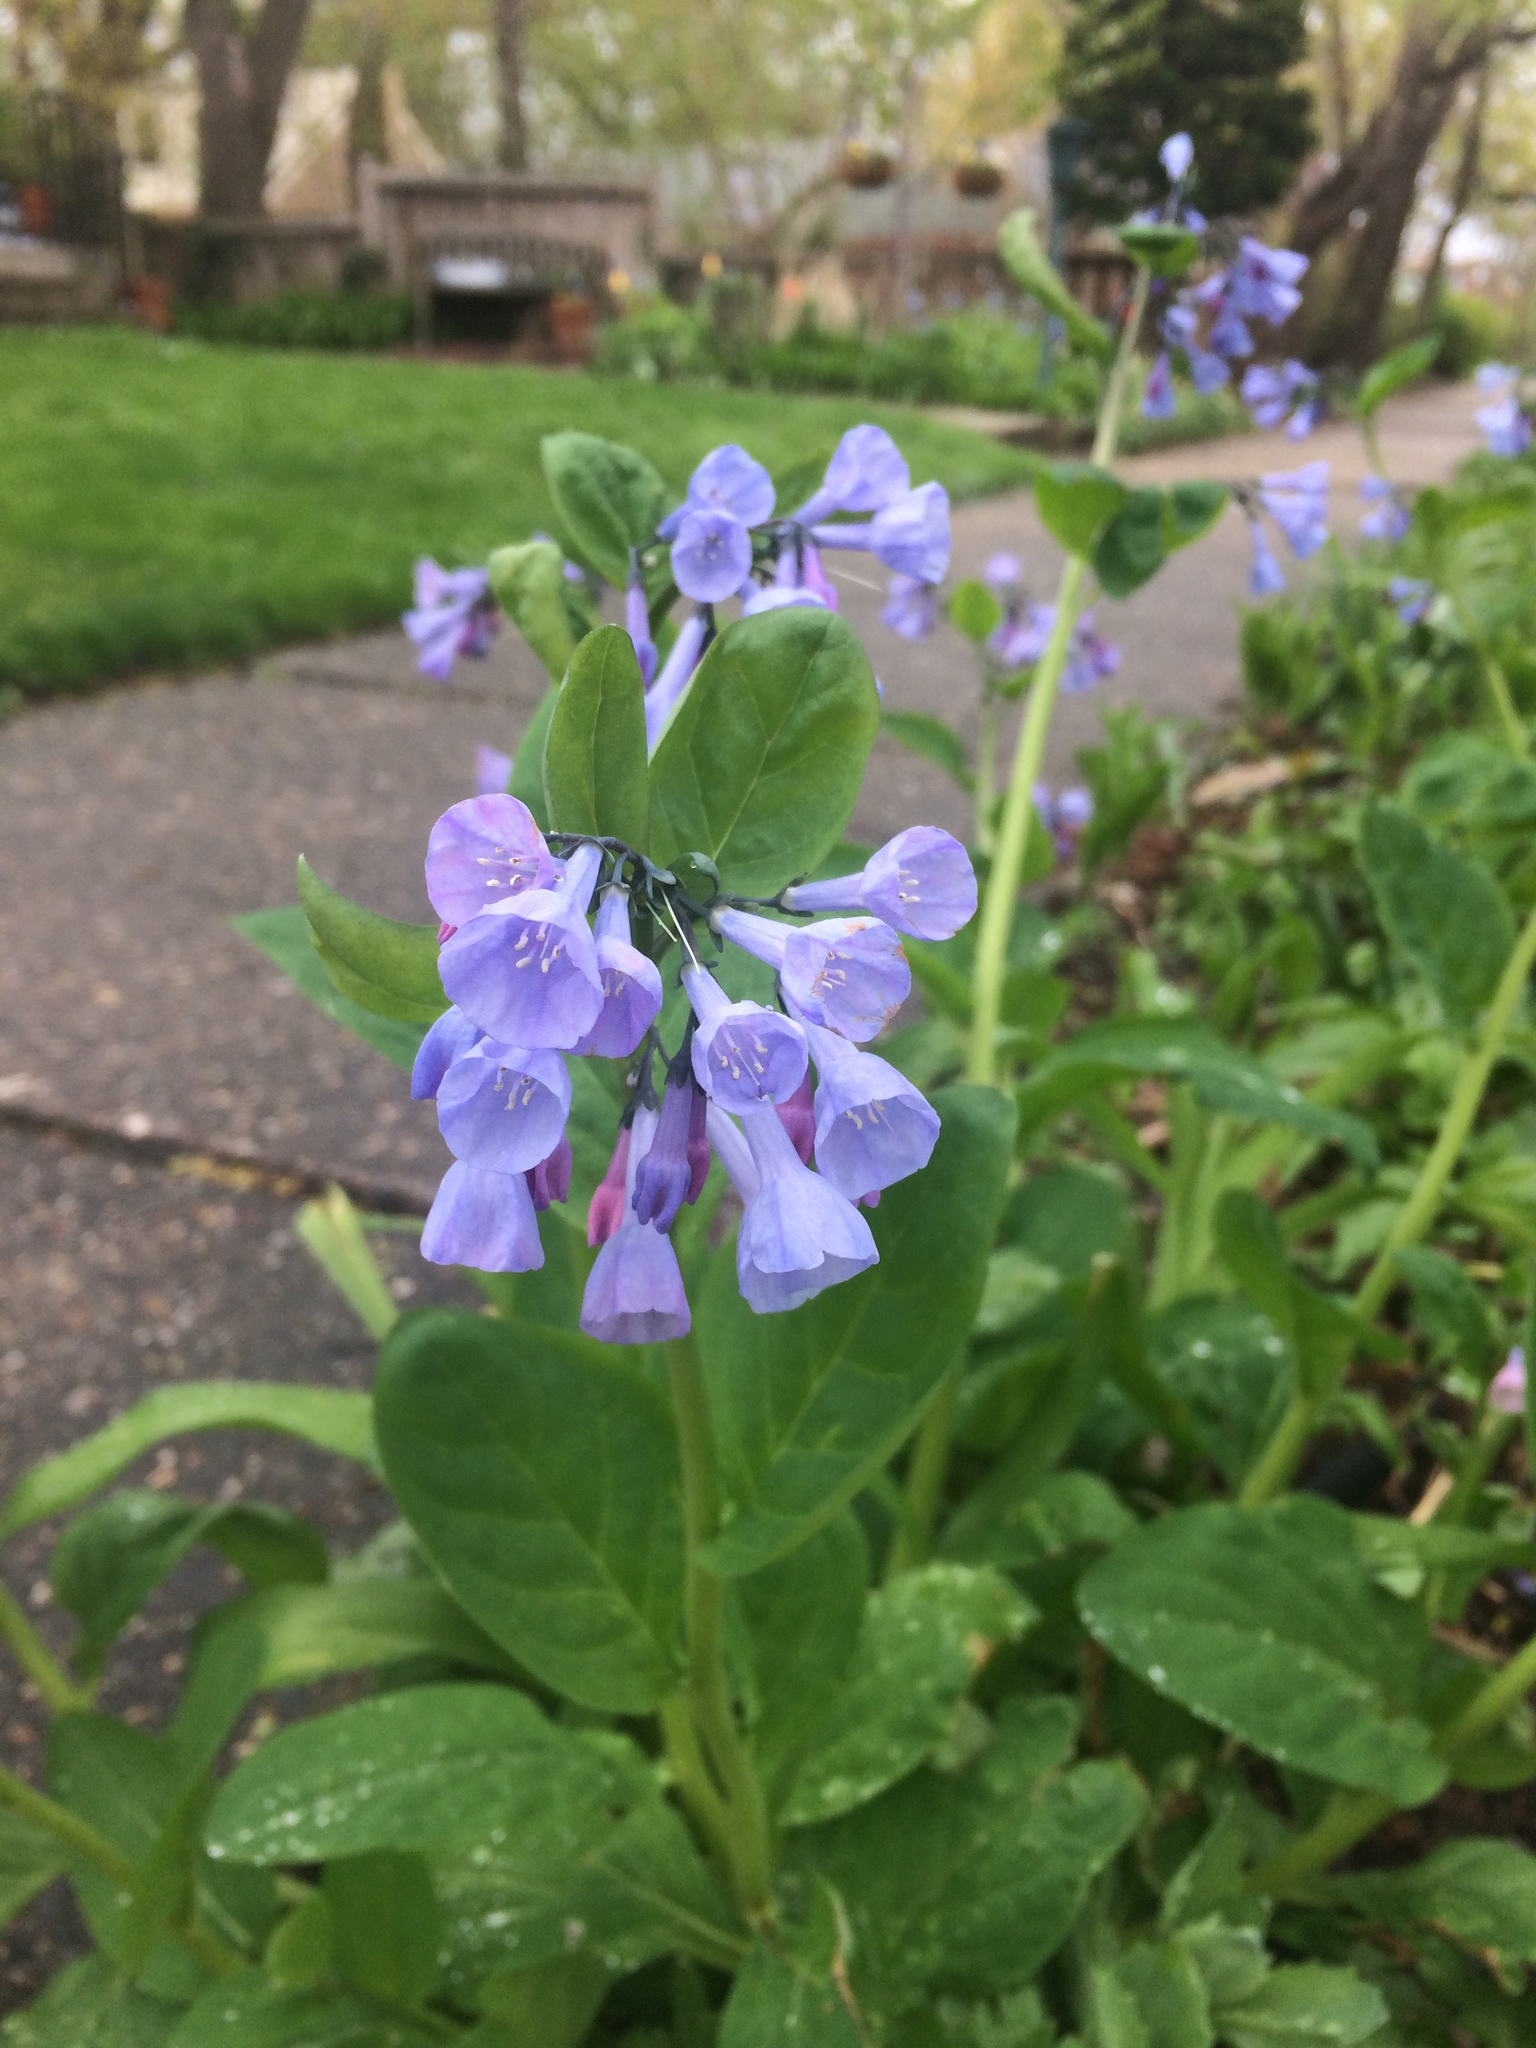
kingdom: Plantae
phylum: Tracheophyta
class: Magnoliopsida
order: Boraginales
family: Boraginaceae
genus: Mertensia
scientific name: Mertensia virginica
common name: Virginia bluebells
